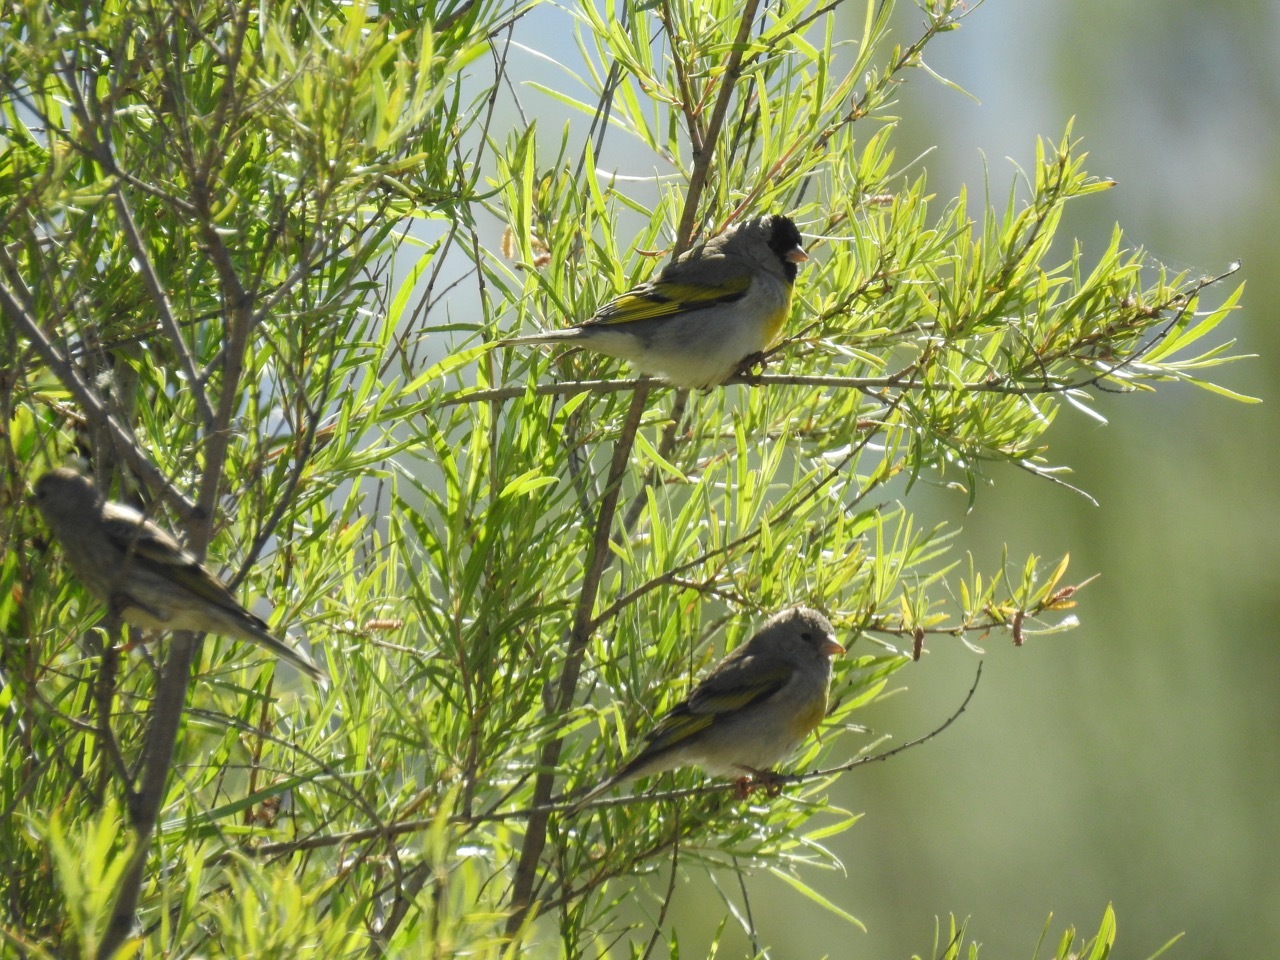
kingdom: Animalia
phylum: Chordata
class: Aves
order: Passeriformes
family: Fringillidae
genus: Spinus
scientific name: Spinus lawrencei
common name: Lawrence's goldfinch
